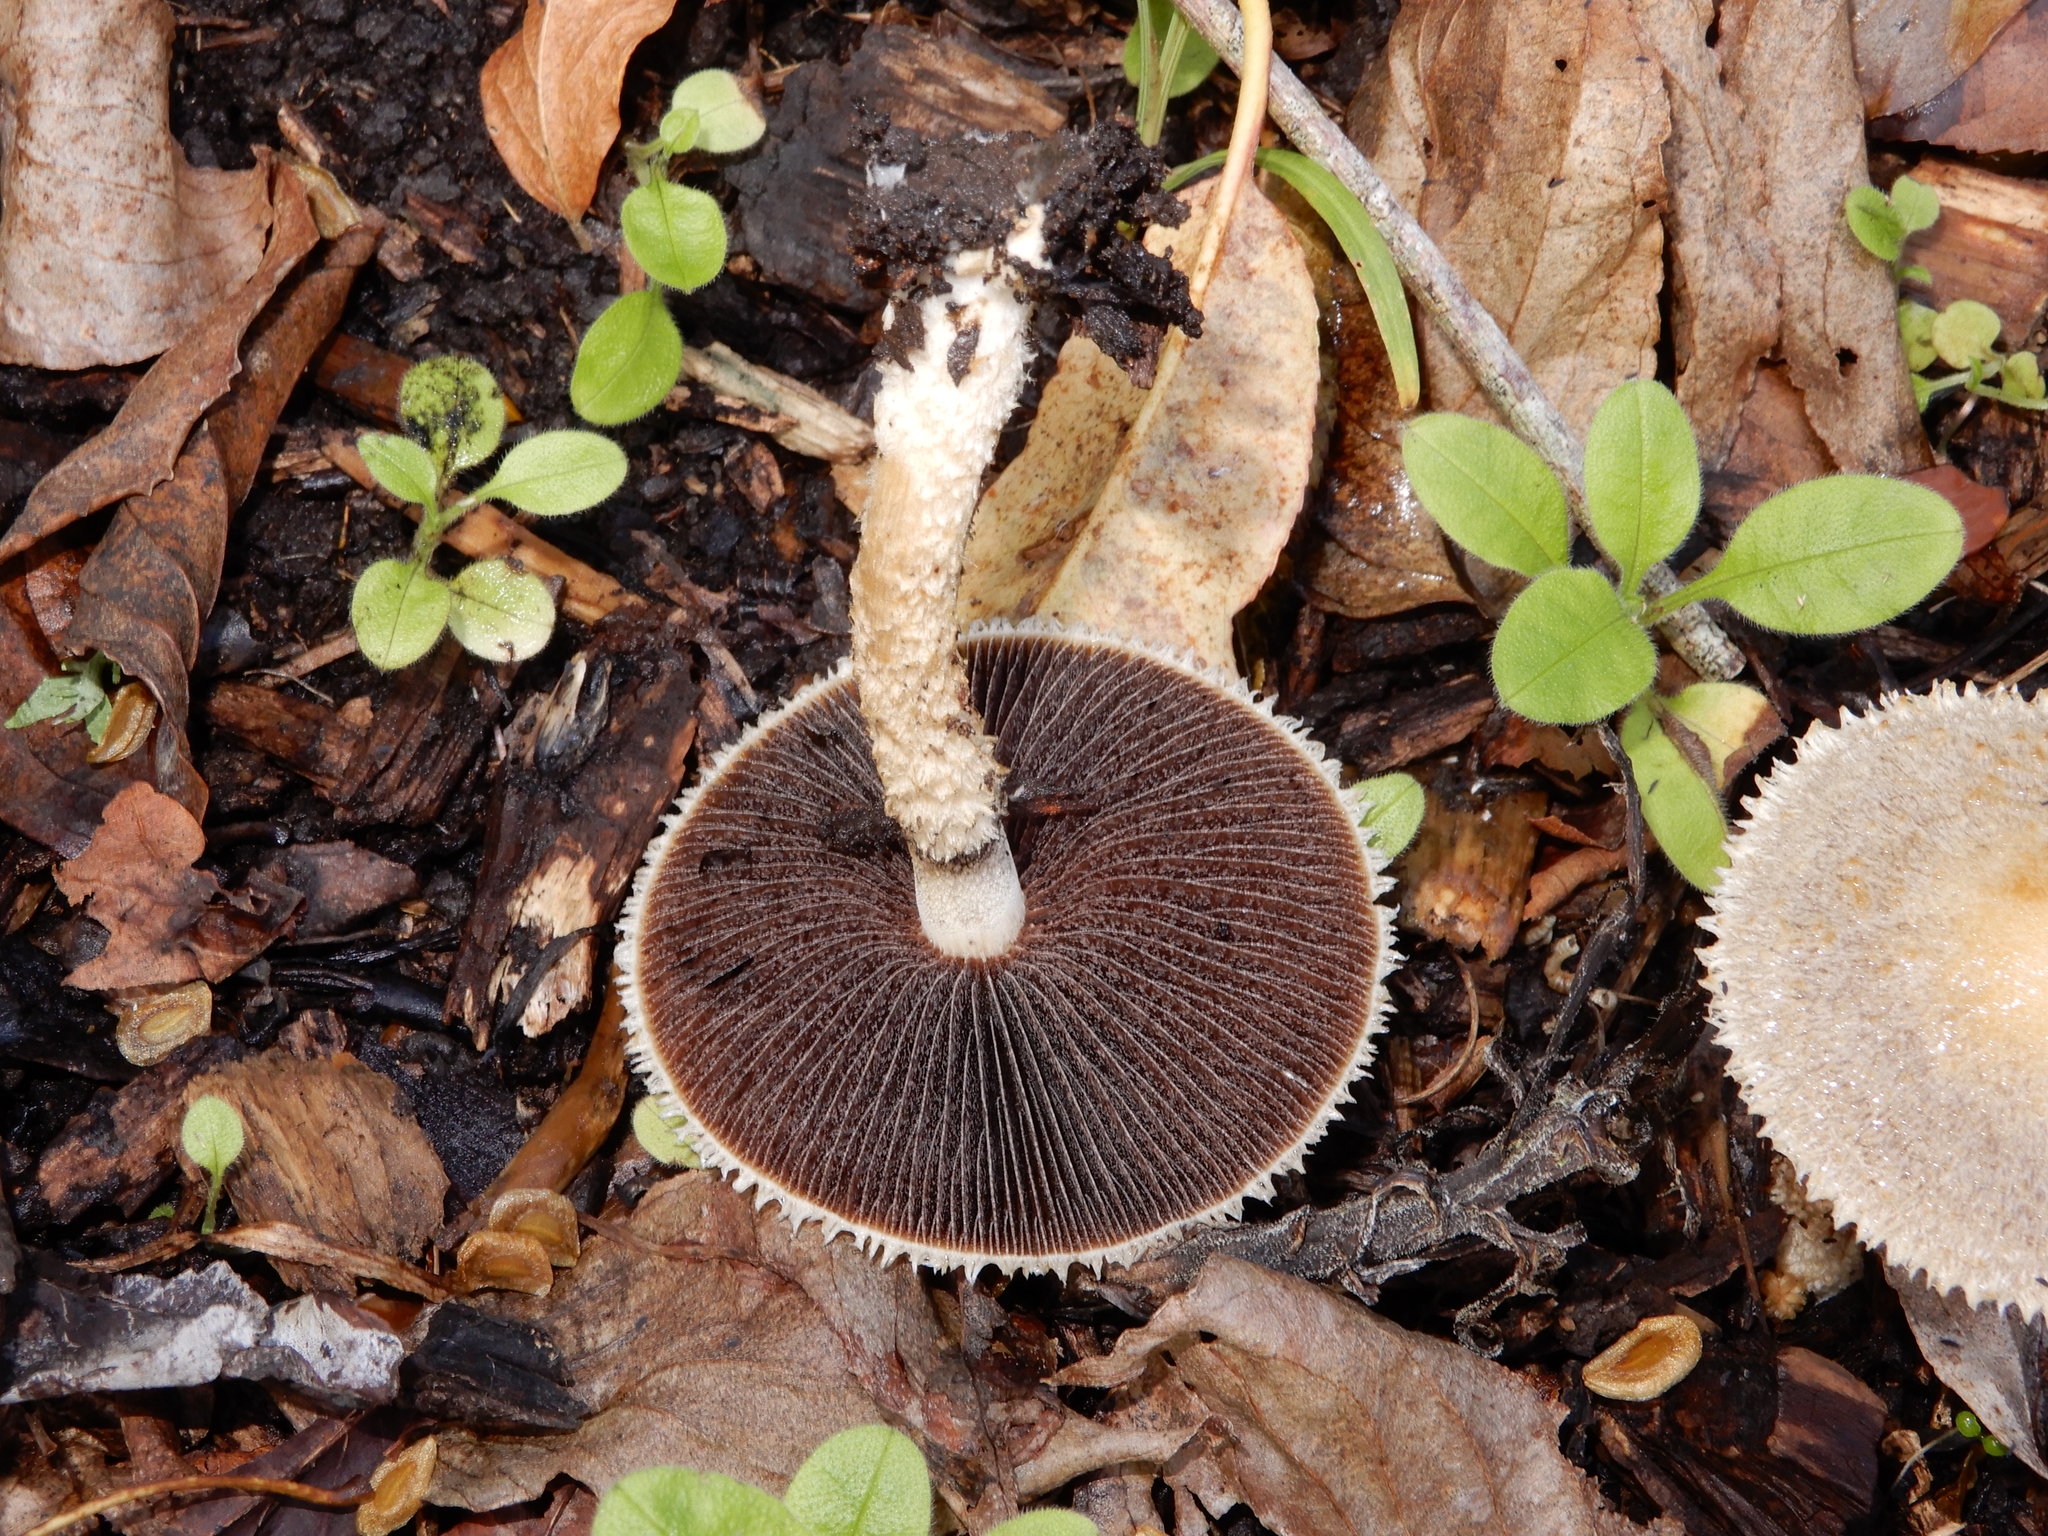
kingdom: Fungi
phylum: Basidiomycota
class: Agaricomycetes
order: Agaricales
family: Psathyrellaceae
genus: Psathyrella
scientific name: Psathyrella asperospora
